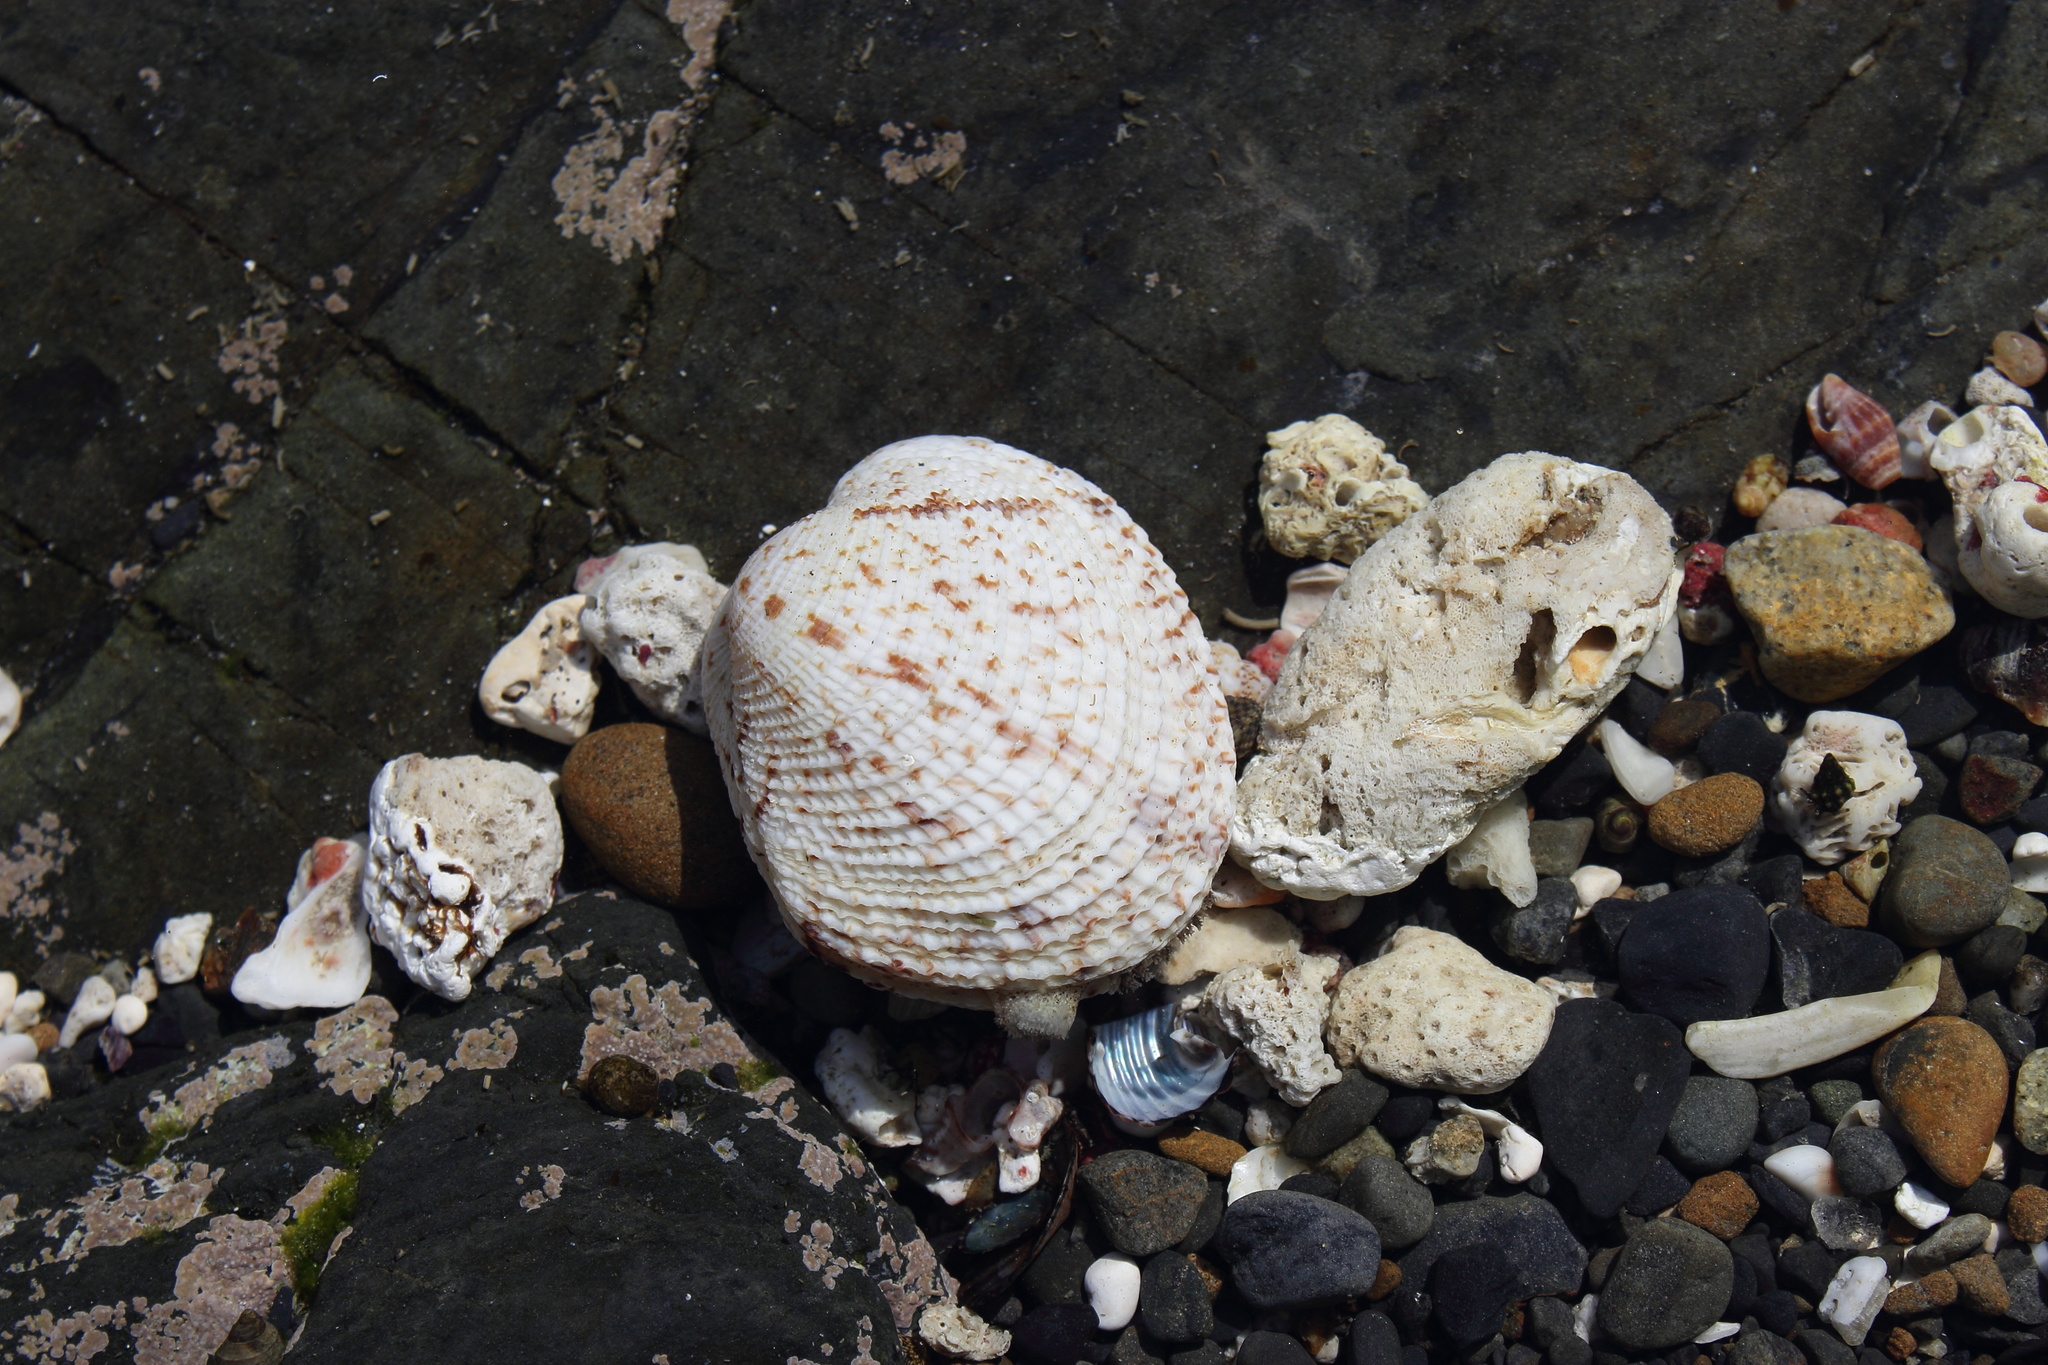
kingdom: Animalia
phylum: Mollusca
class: Bivalvia
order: Venerida
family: Veneridae
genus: Periglypta
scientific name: Periglypta reticulata
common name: Reticulated venus
